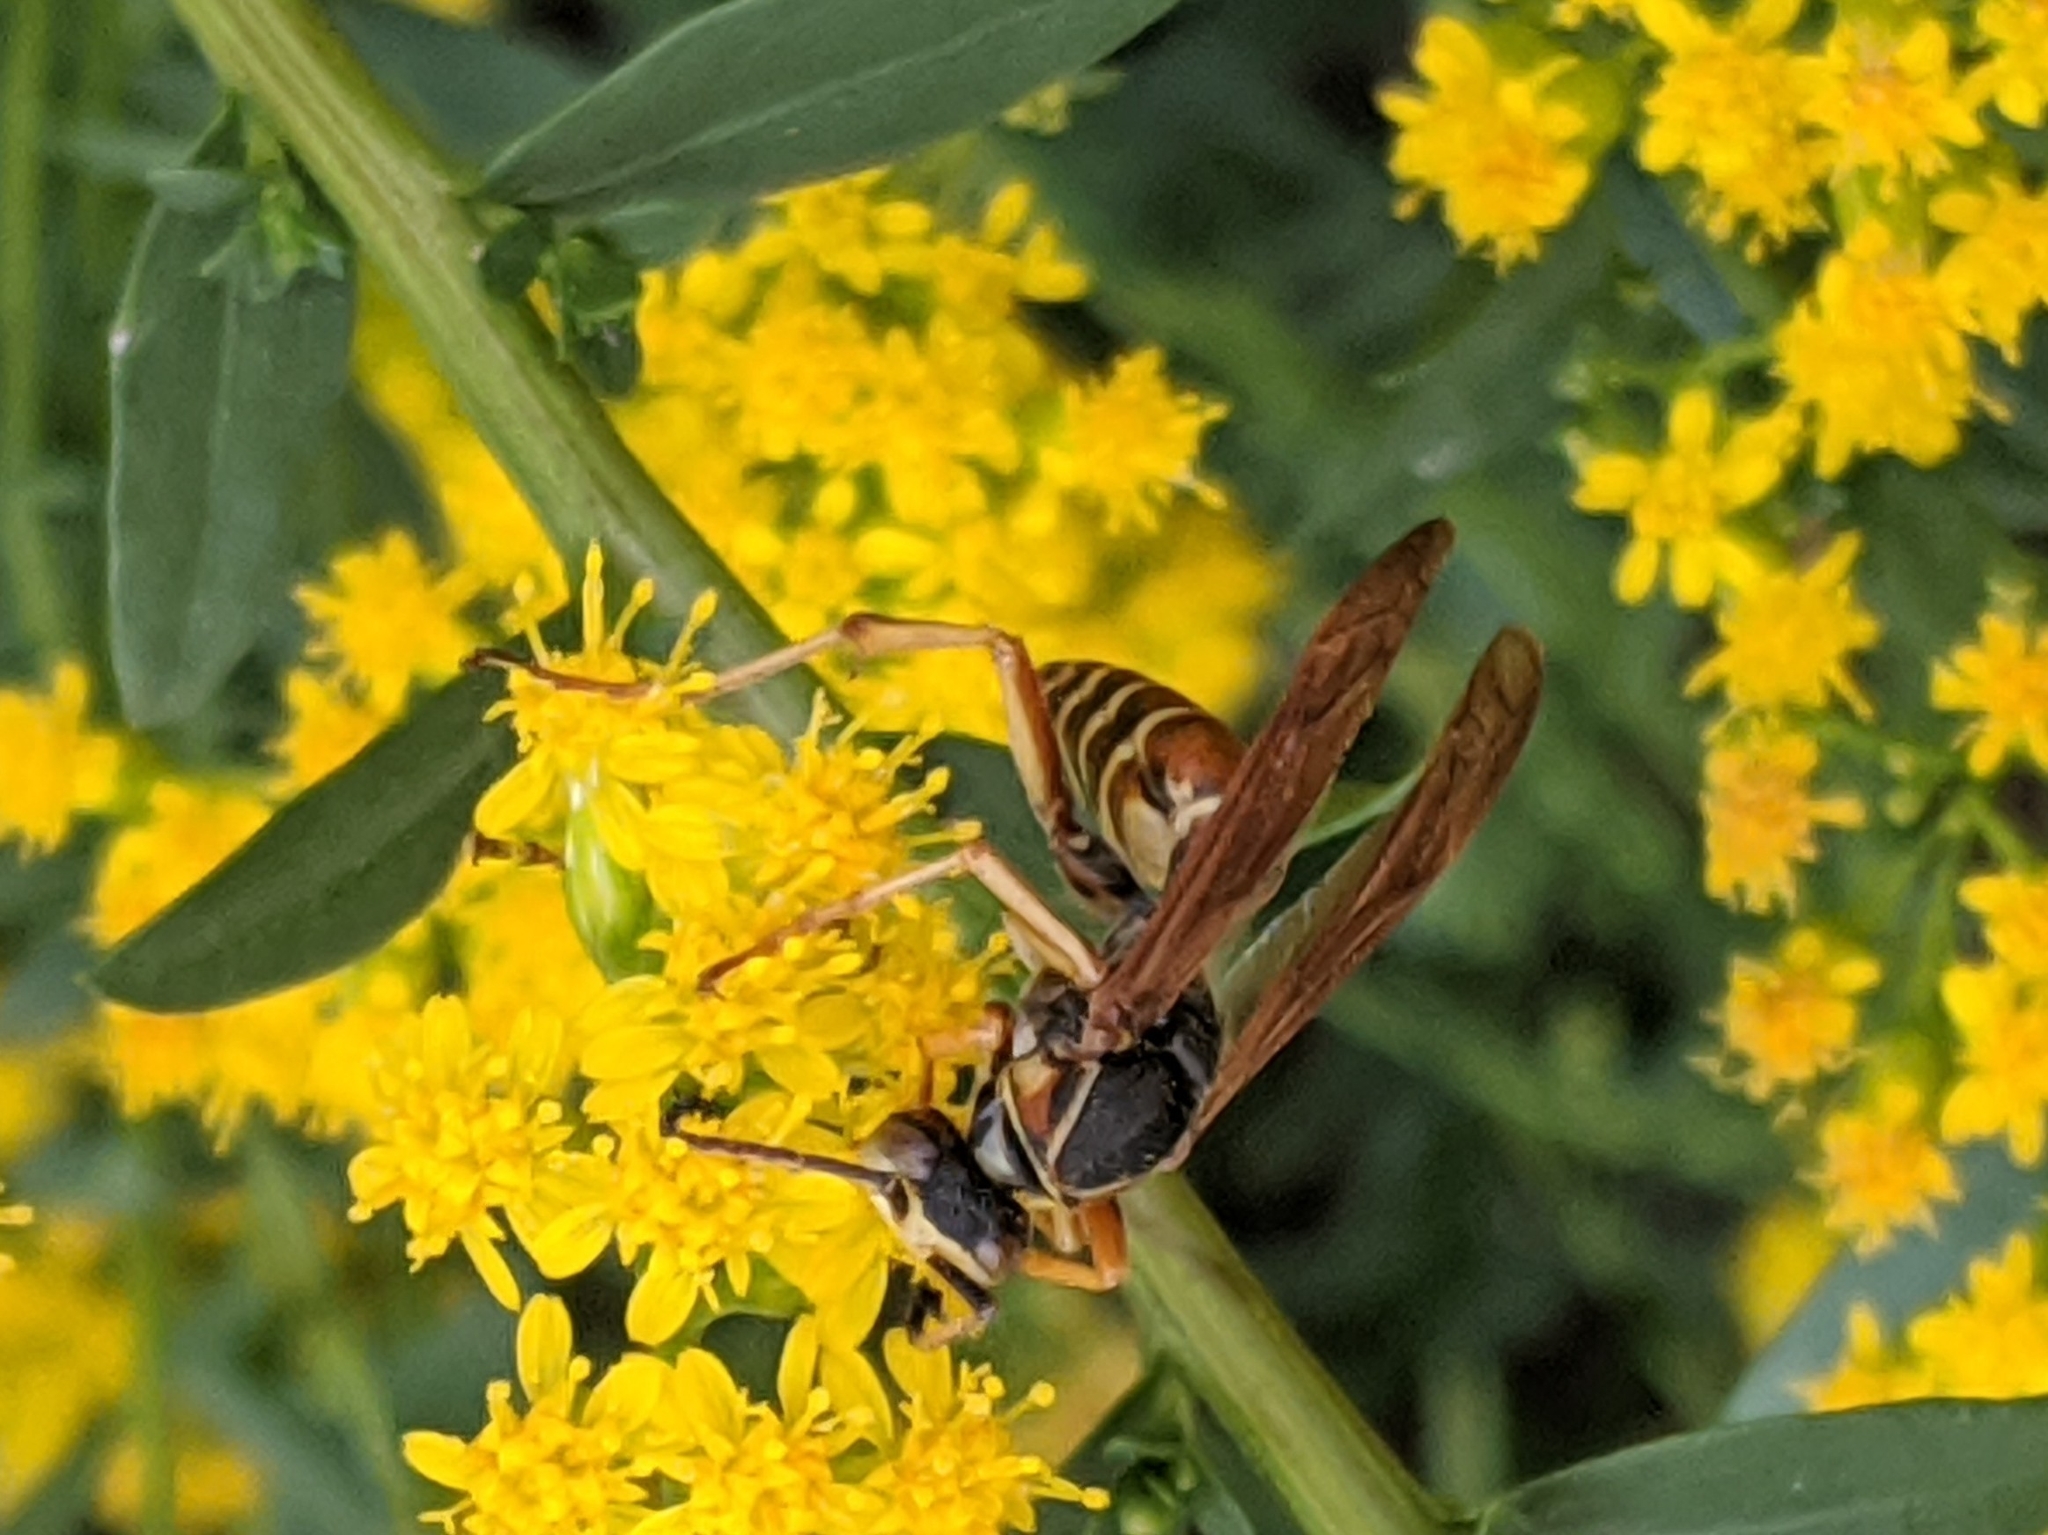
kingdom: Animalia
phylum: Arthropoda
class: Insecta
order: Hymenoptera
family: Eumenidae
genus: Polistes
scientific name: Polistes fuscatus
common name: Dark paper wasp
